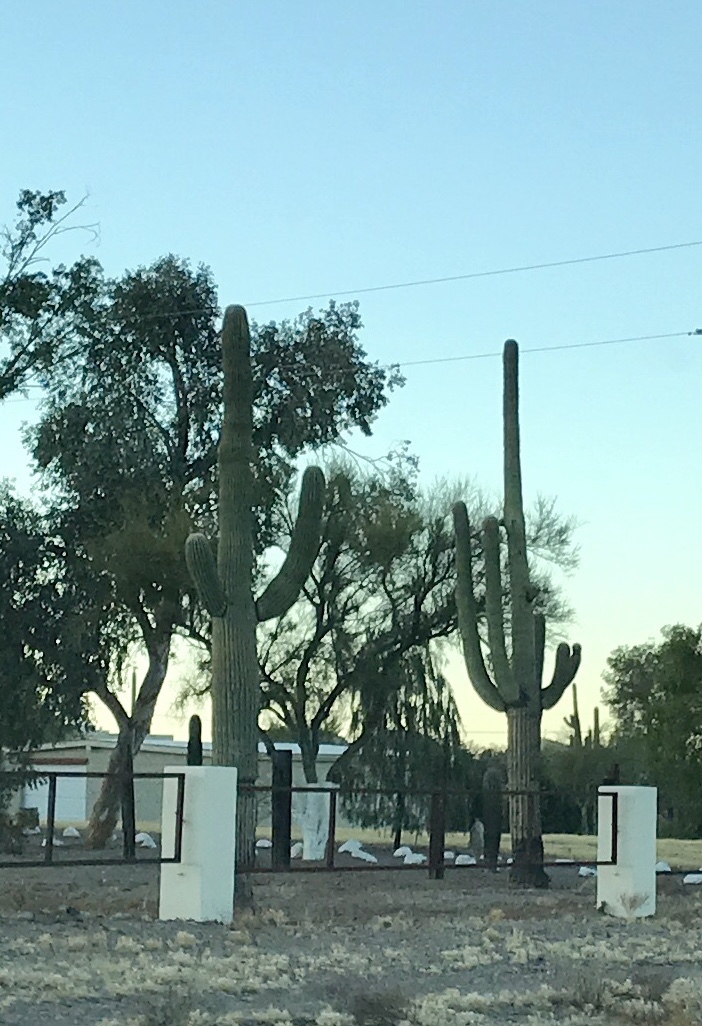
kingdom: Plantae
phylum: Tracheophyta
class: Magnoliopsida
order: Caryophyllales
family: Cactaceae
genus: Carnegiea
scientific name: Carnegiea gigantea
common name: Saguaro
